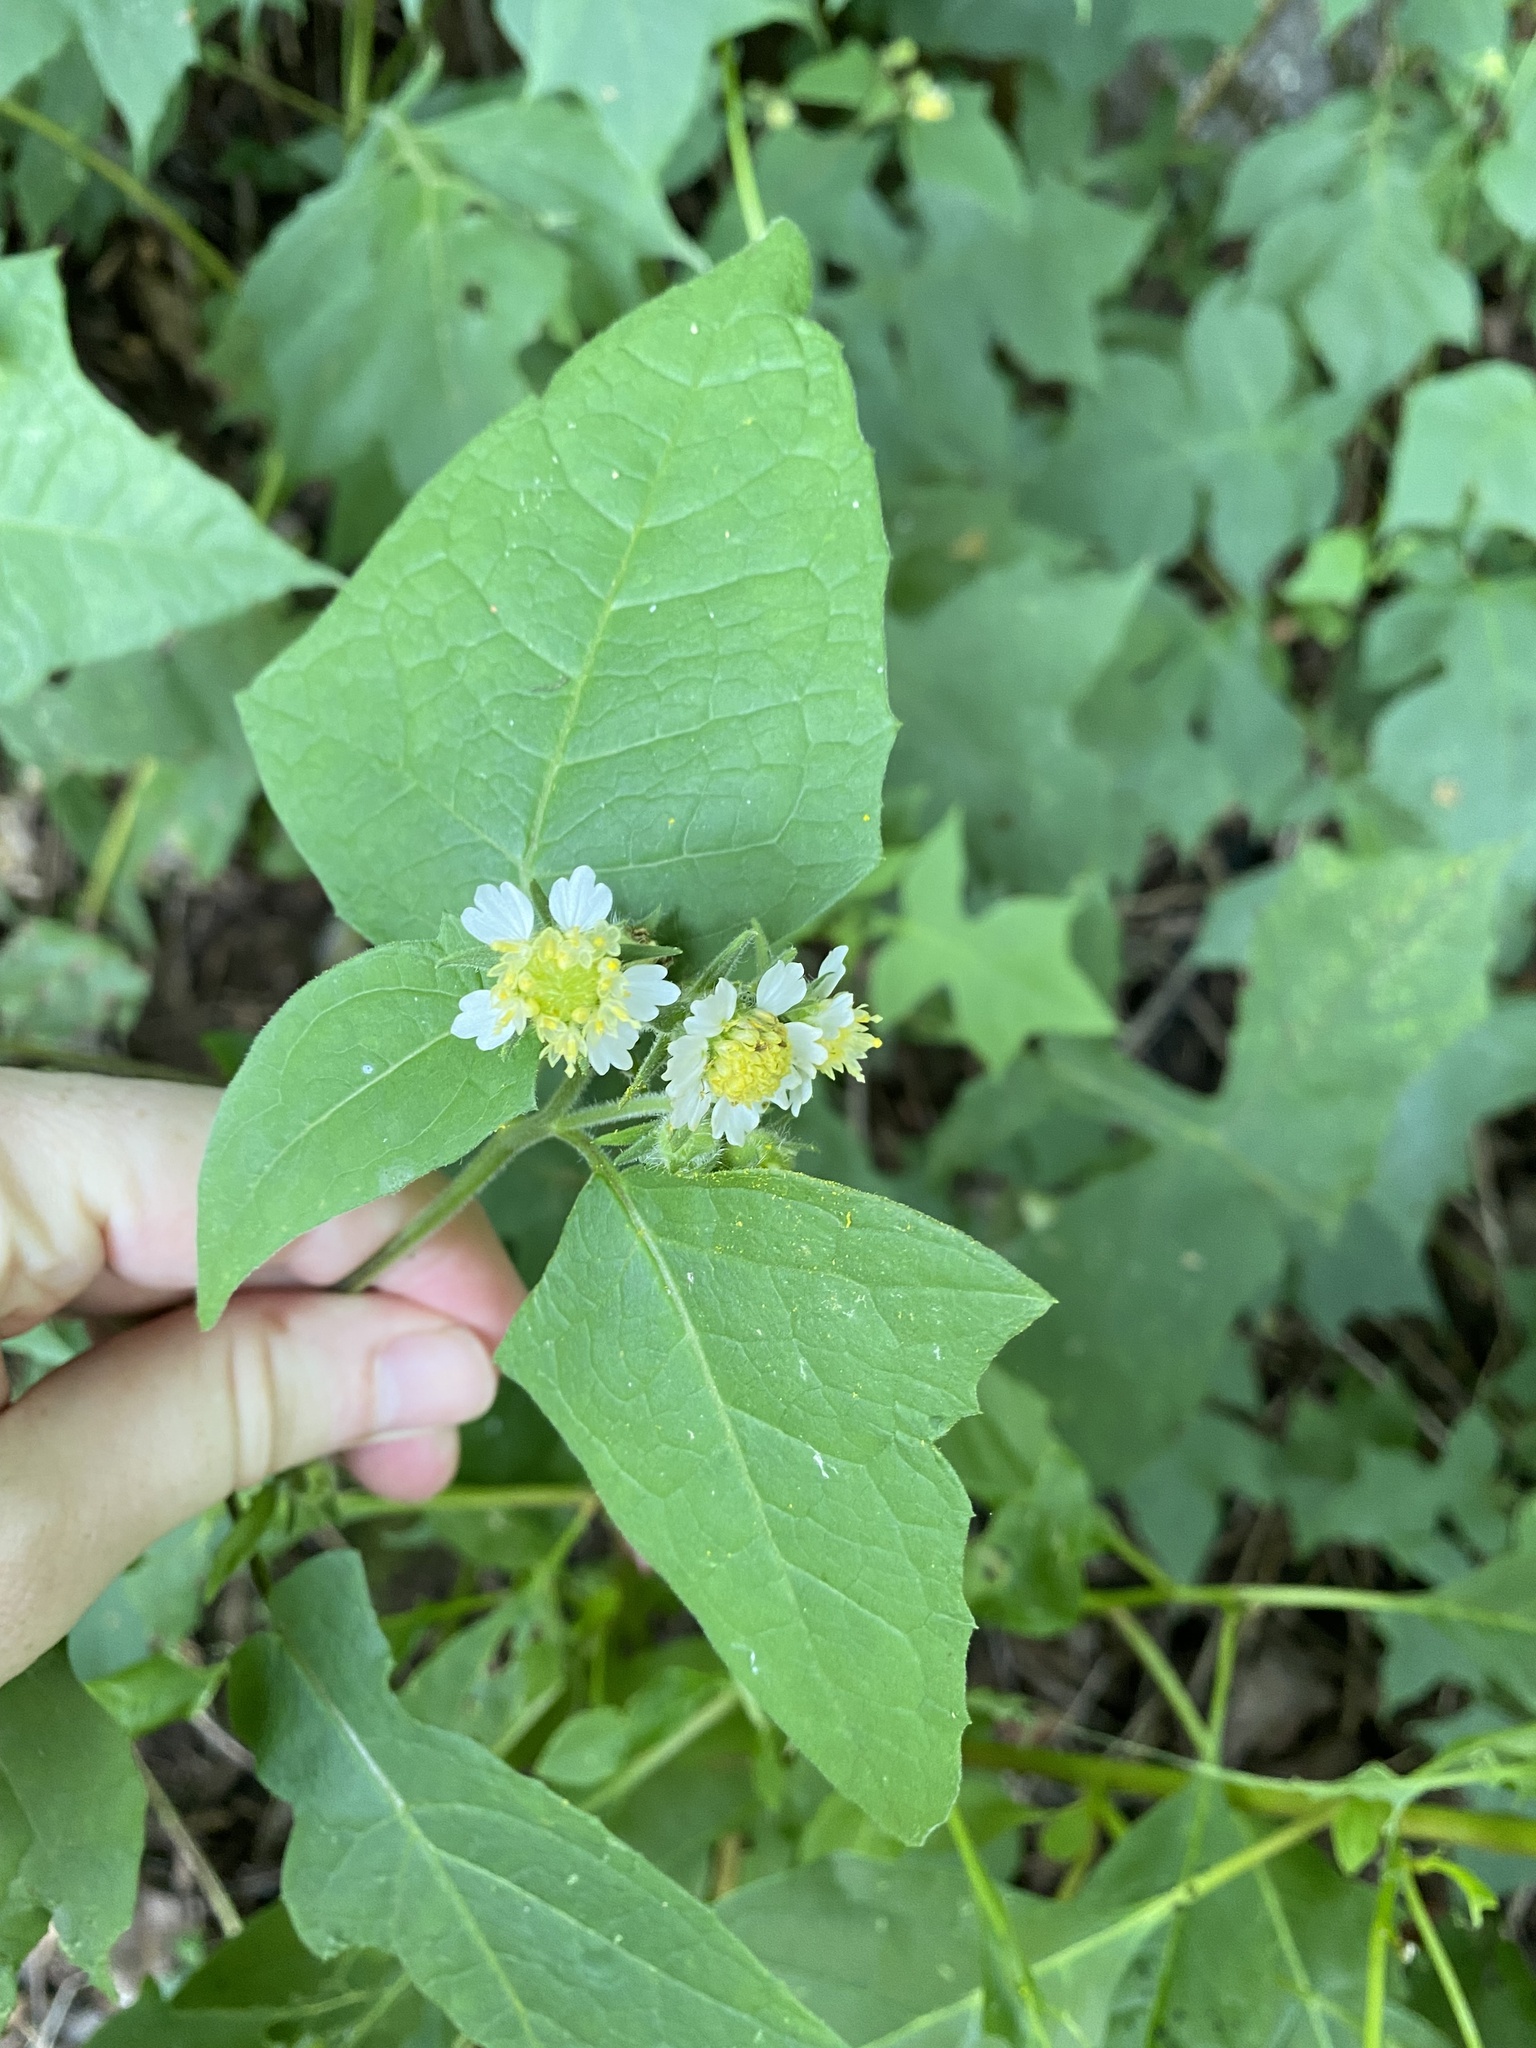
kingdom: Plantae
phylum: Tracheophyta
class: Magnoliopsida
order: Asterales
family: Asteraceae
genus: Polymnia
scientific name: Polymnia canadensis
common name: Pale-flowered leafcup
